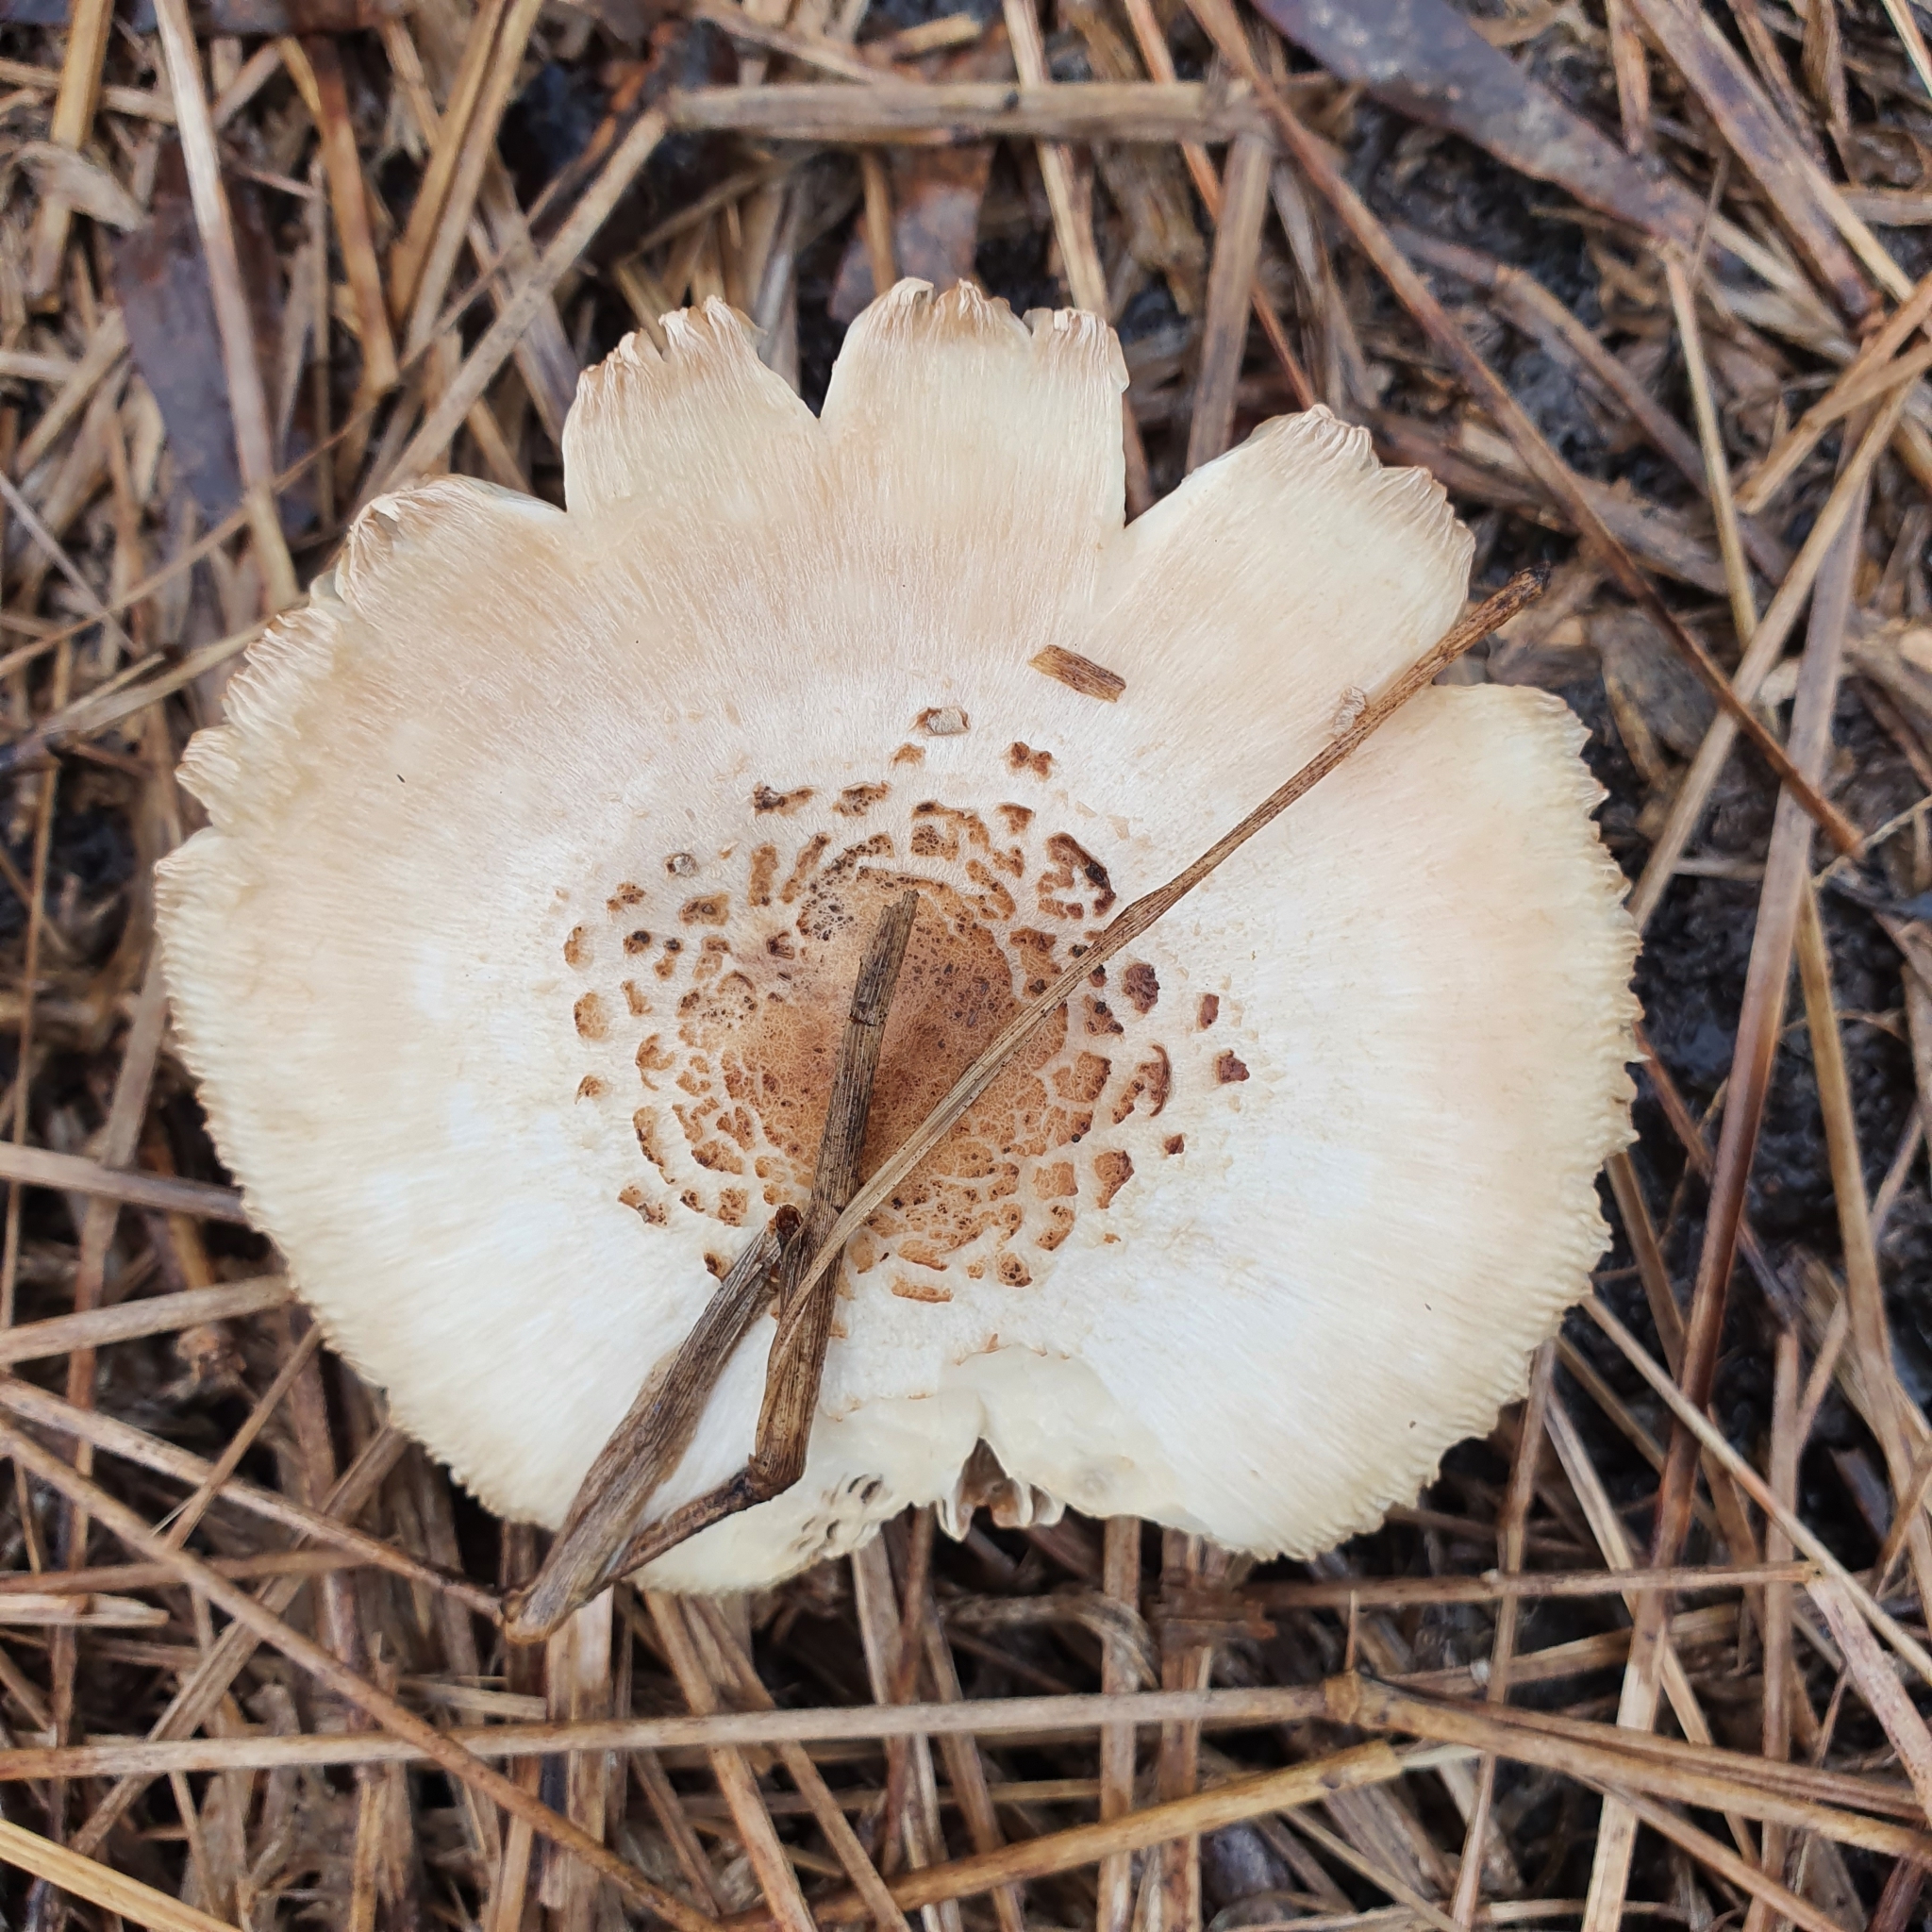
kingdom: Fungi
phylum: Basidiomycota
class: Agaricomycetes
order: Agaricales
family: Agaricaceae
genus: Chlorophyllum
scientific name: Chlorophyllum molybdites
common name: False parasol
